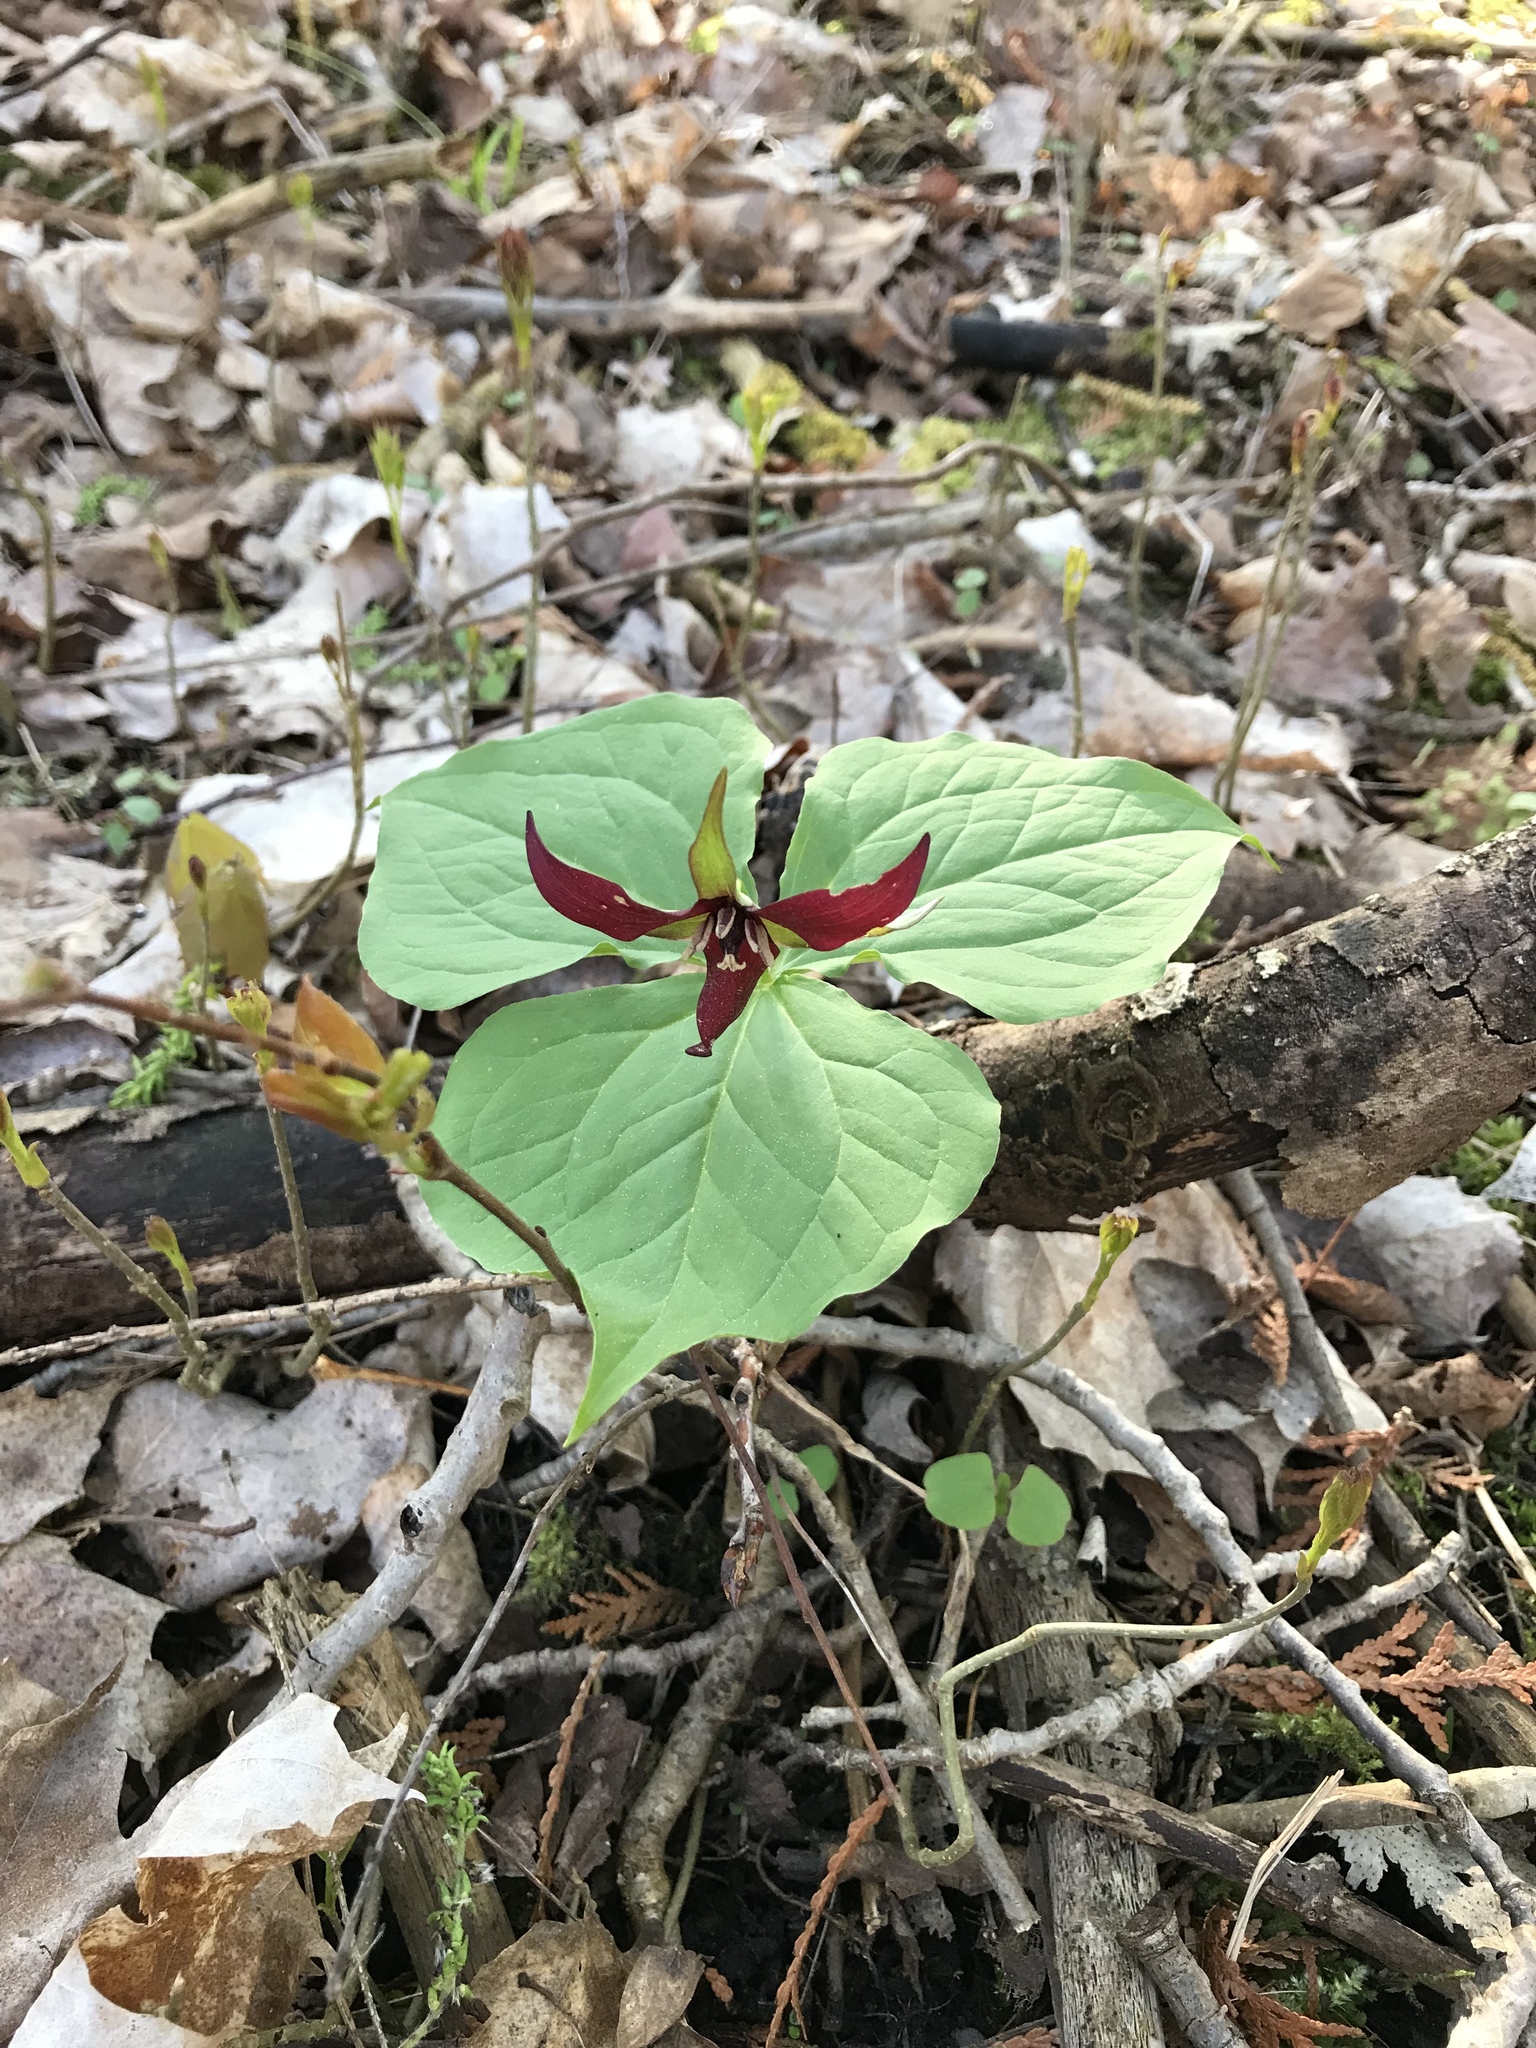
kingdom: Plantae
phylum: Tracheophyta
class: Liliopsida
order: Liliales
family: Melanthiaceae
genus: Trillium
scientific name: Trillium erectum
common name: Purple trillium
